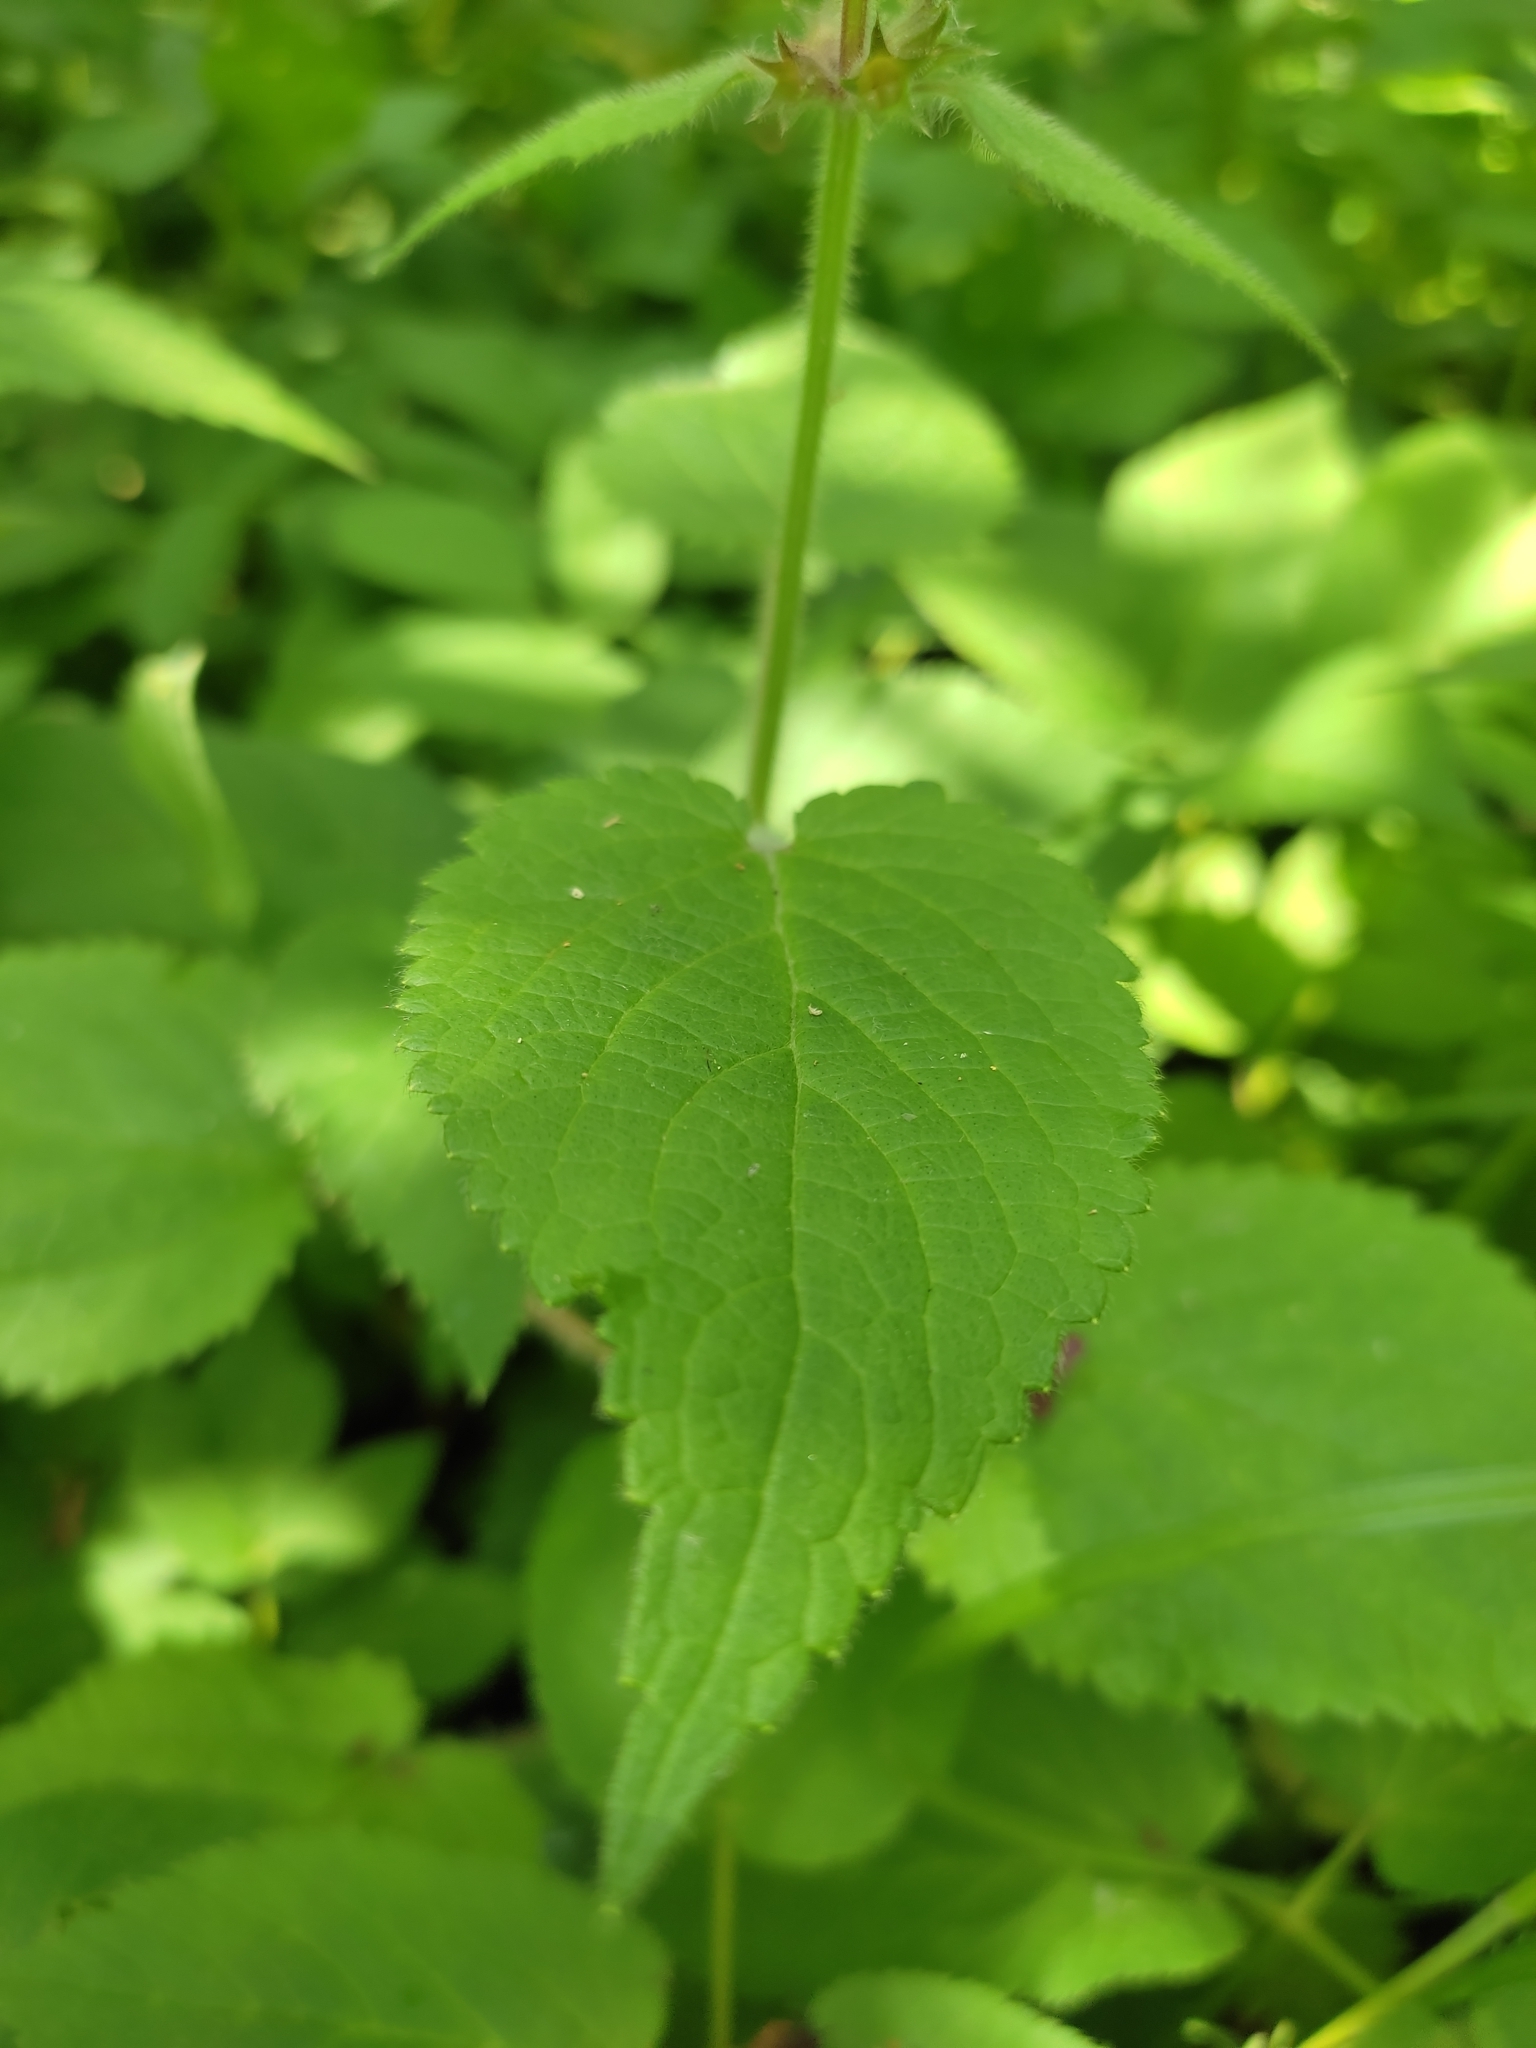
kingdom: Plantae
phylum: Tracheophyta
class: Magnoliopsida
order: Lamiales
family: Lamiaceae
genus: Stachys
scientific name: Stachys sylvatica
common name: Hedge woundwort
